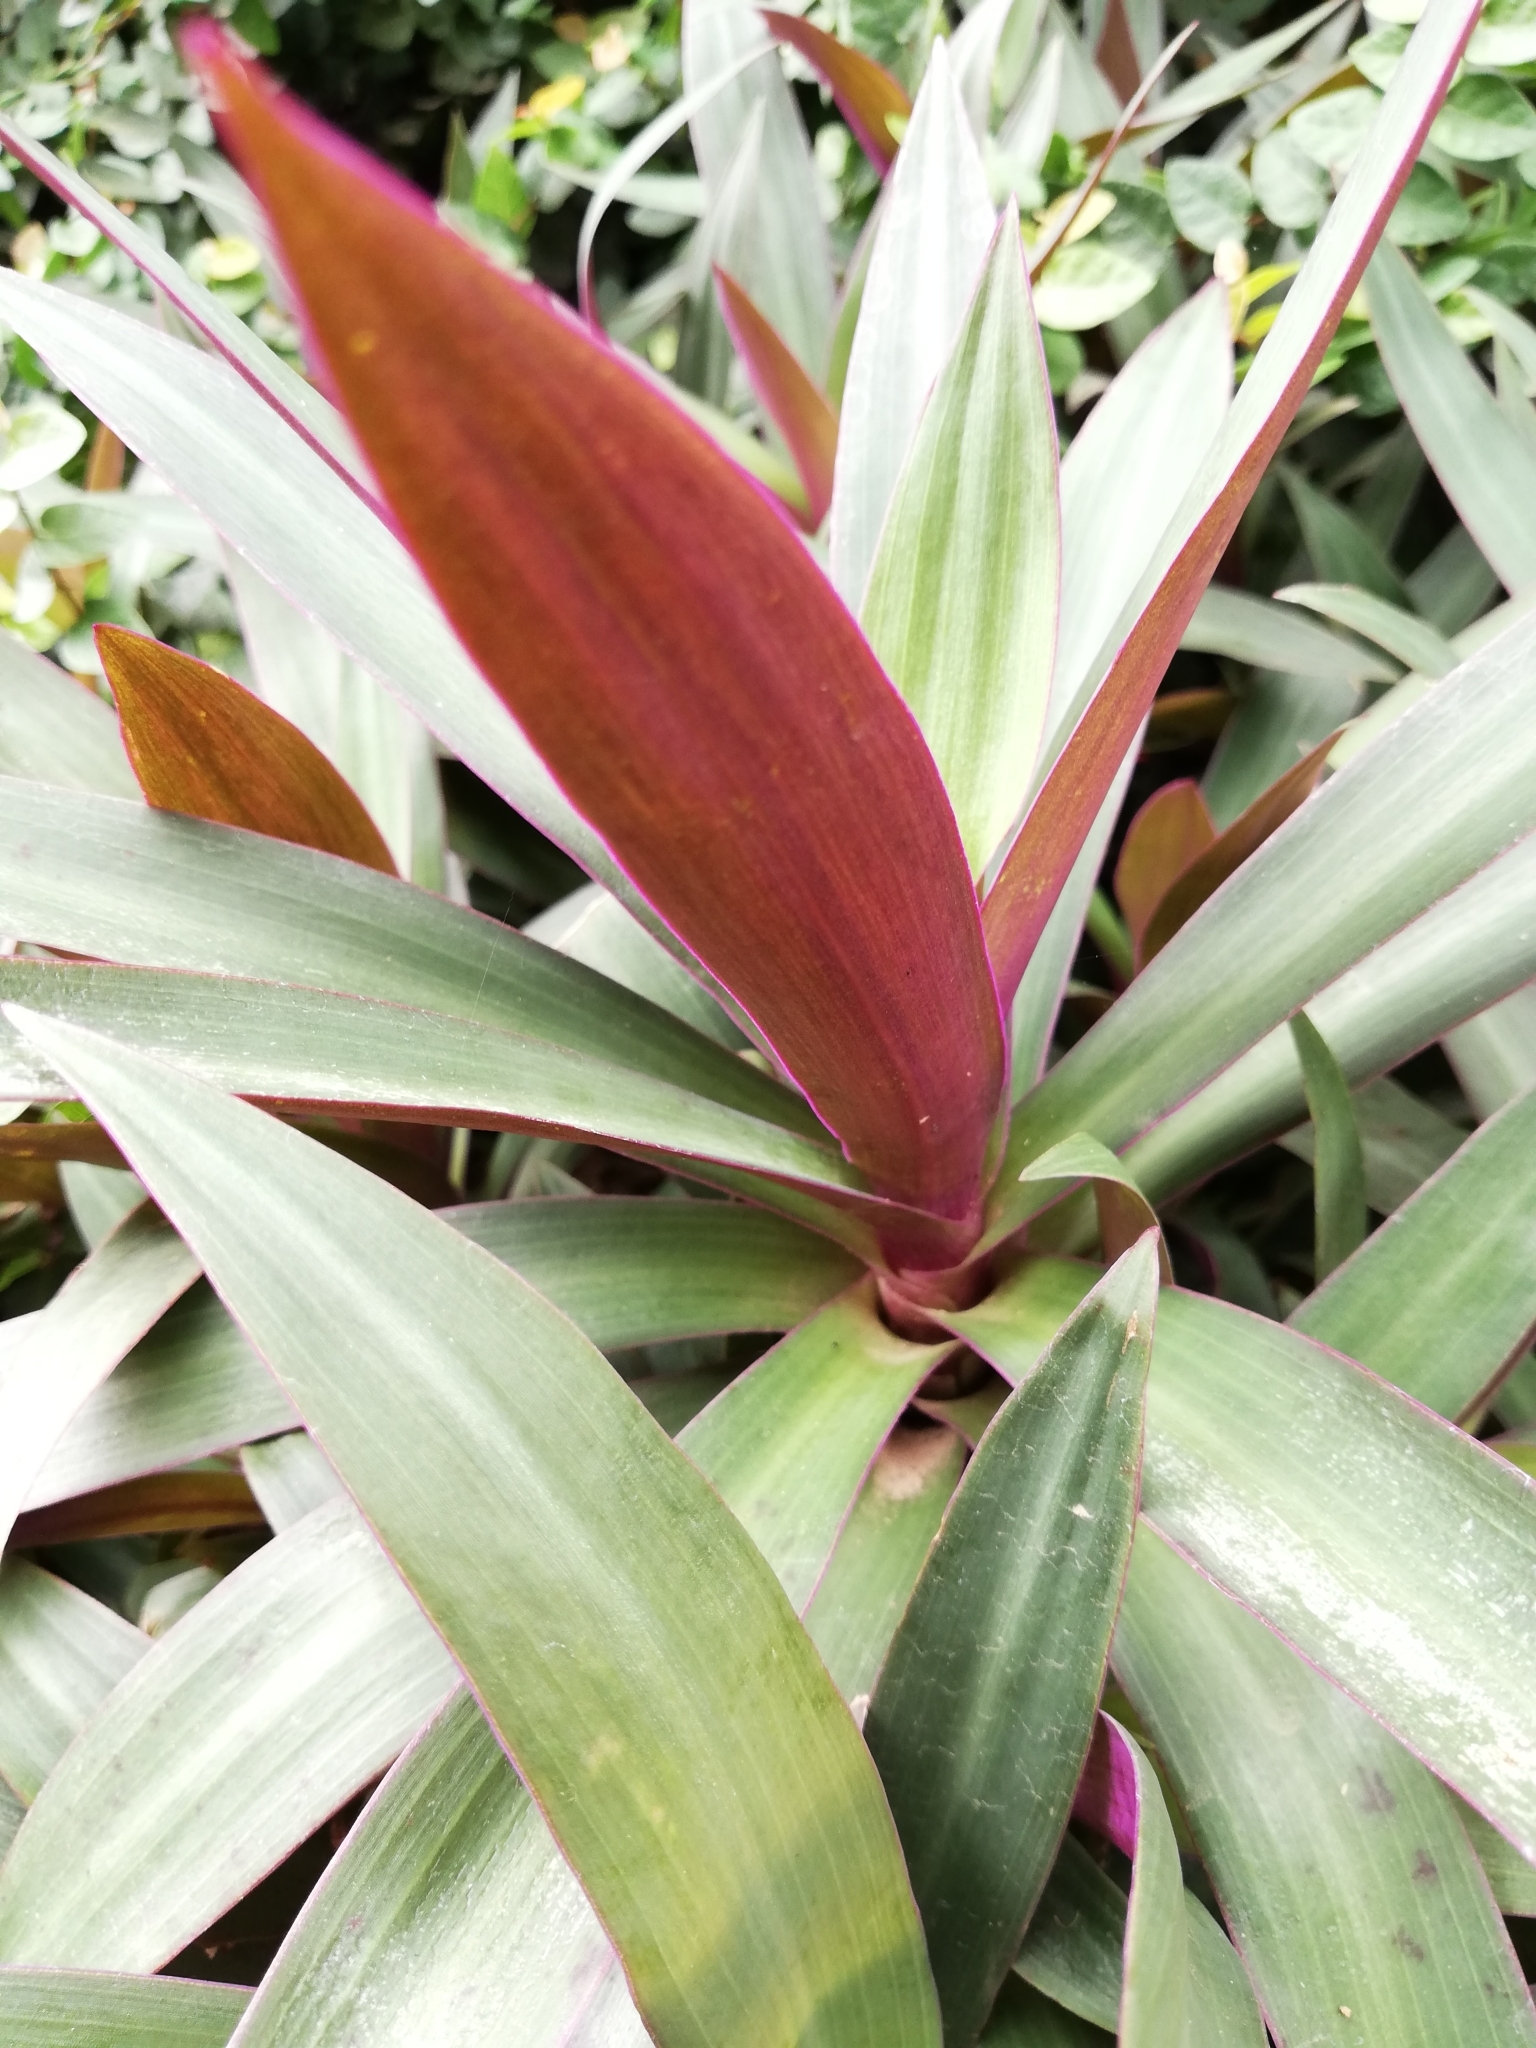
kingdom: Plantae
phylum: Tracheophyta
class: Liliopsida
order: Commelinales
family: Commelinaceae
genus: Tradescantia
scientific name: Tradescantia spathacea
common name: Boatlily
